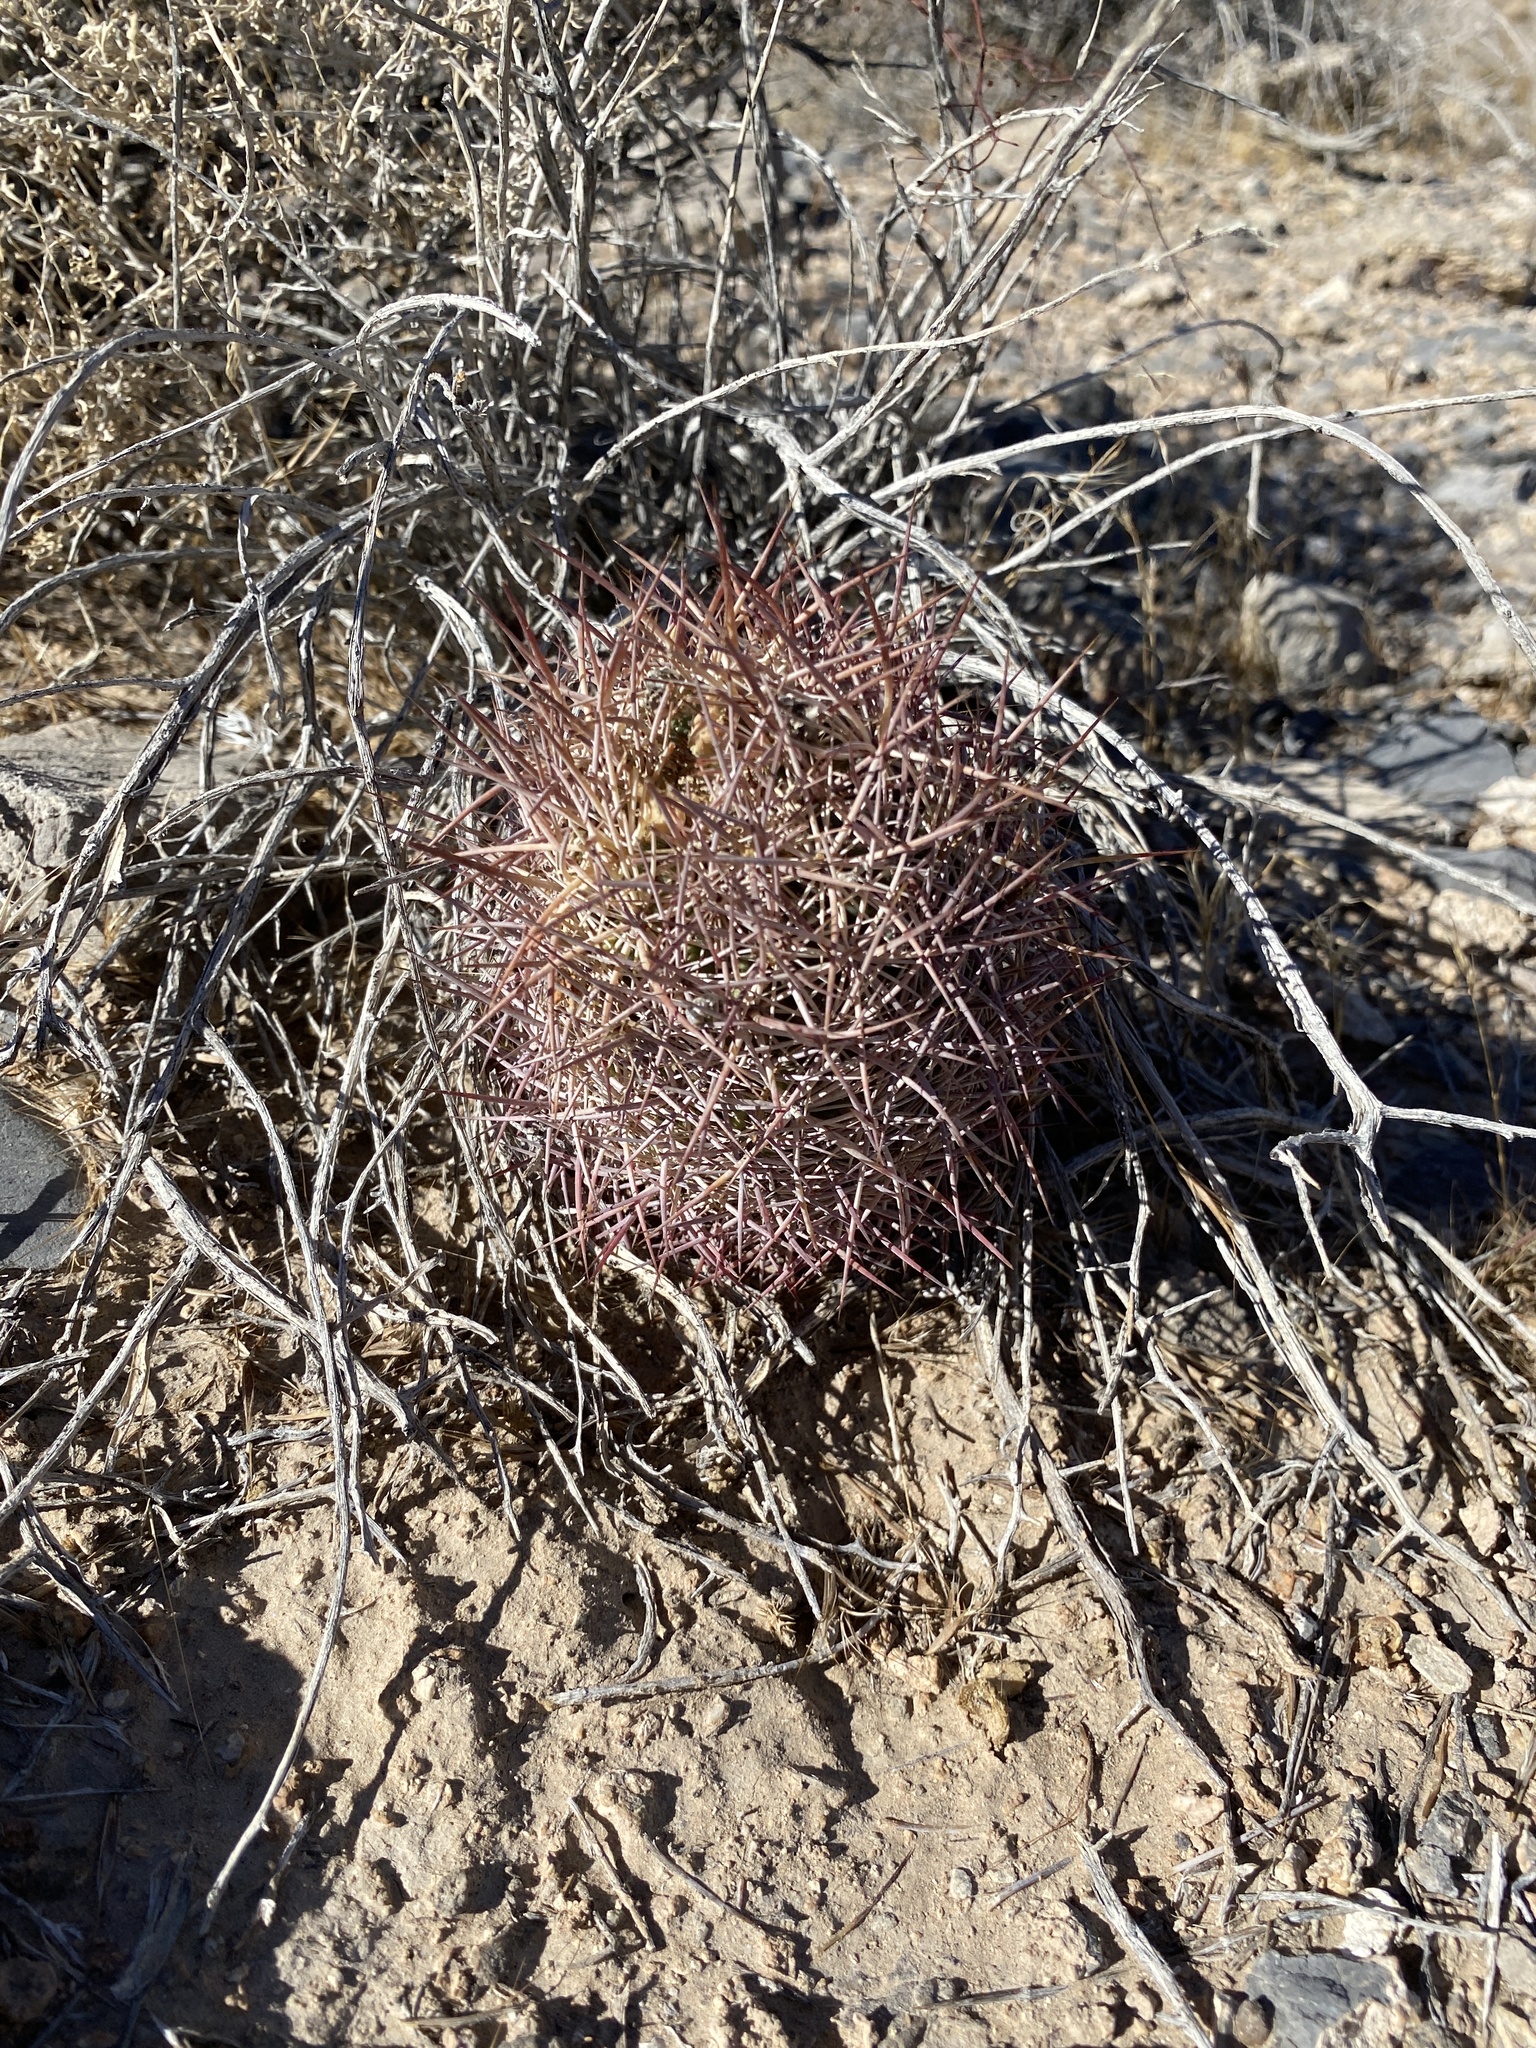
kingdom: Plantae
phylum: Tracheophyta
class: Magnoliopsida
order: Caryophyllales
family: Cactaceae
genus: Sclerocactus
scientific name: Sclerocactus johnsonii
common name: Eight-spine fishhook cactus
